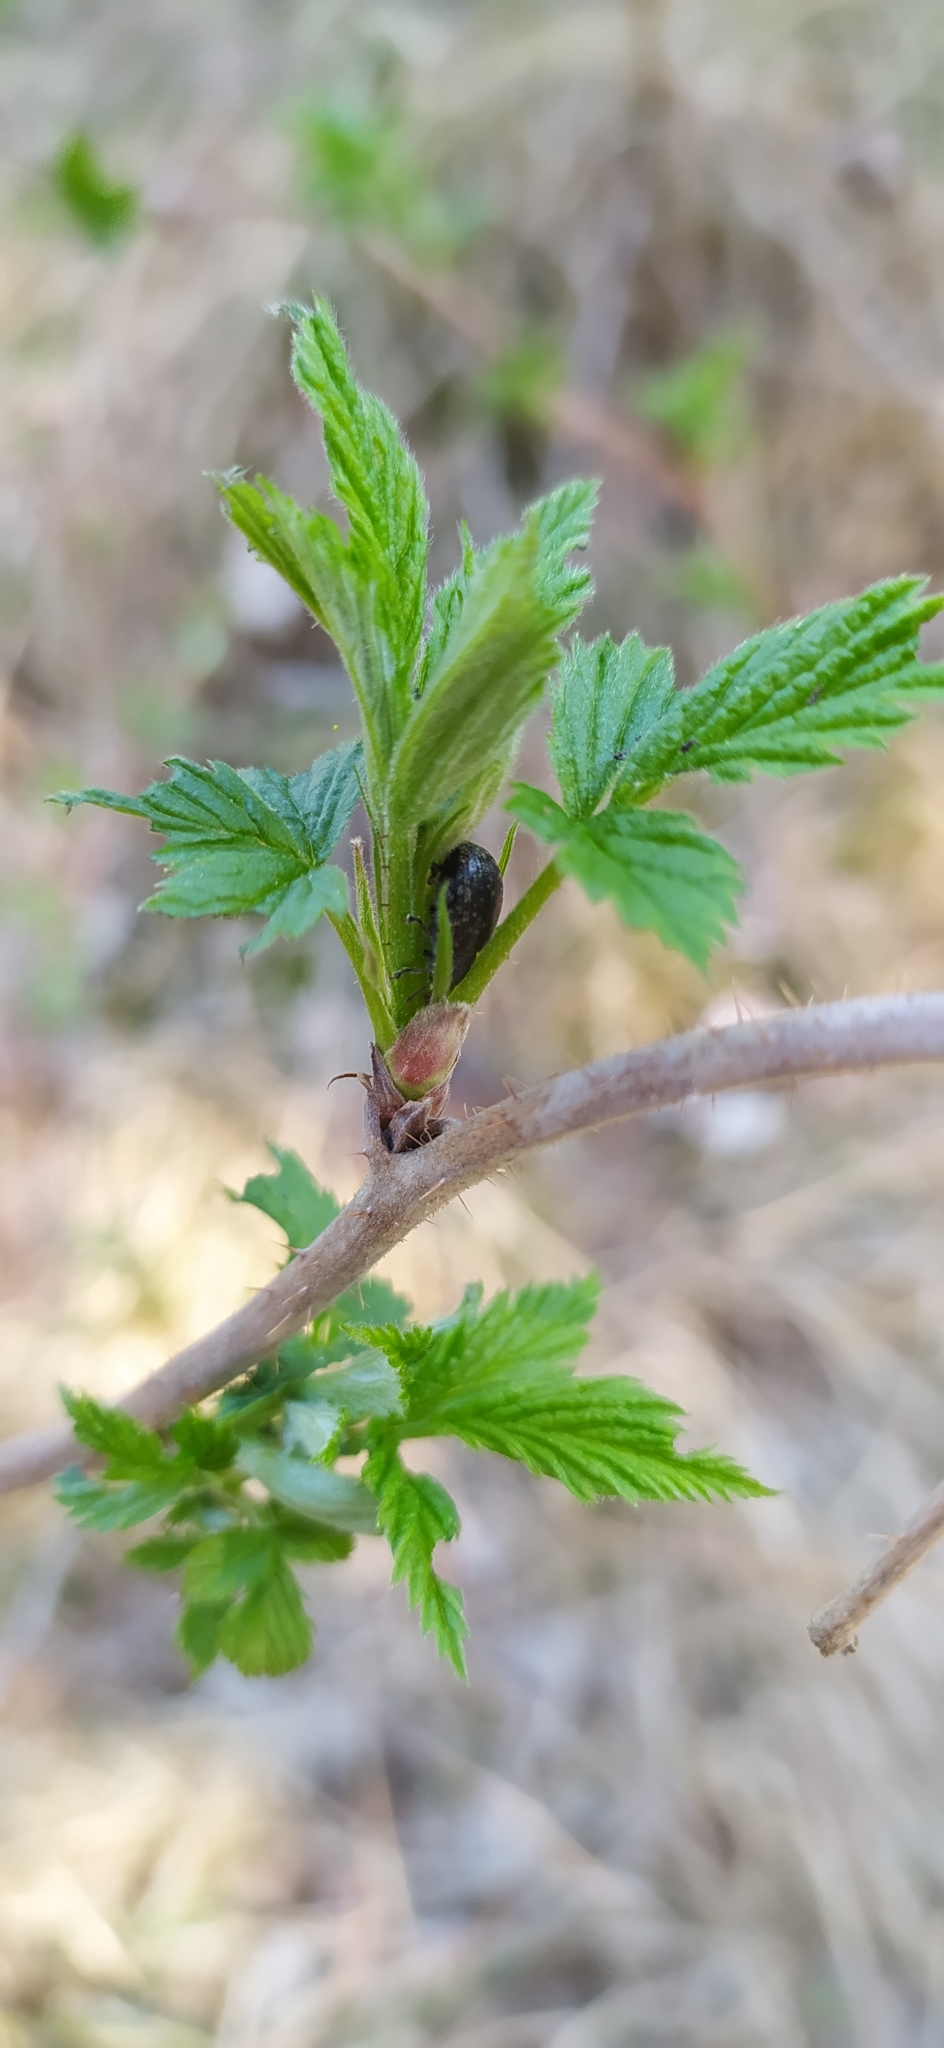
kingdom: Plantae
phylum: Tracheophyta
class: Magnoliopsida
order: Rosales
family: Rosaceae
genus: Rubus
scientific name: Rubus idaeus
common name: Raspberry
